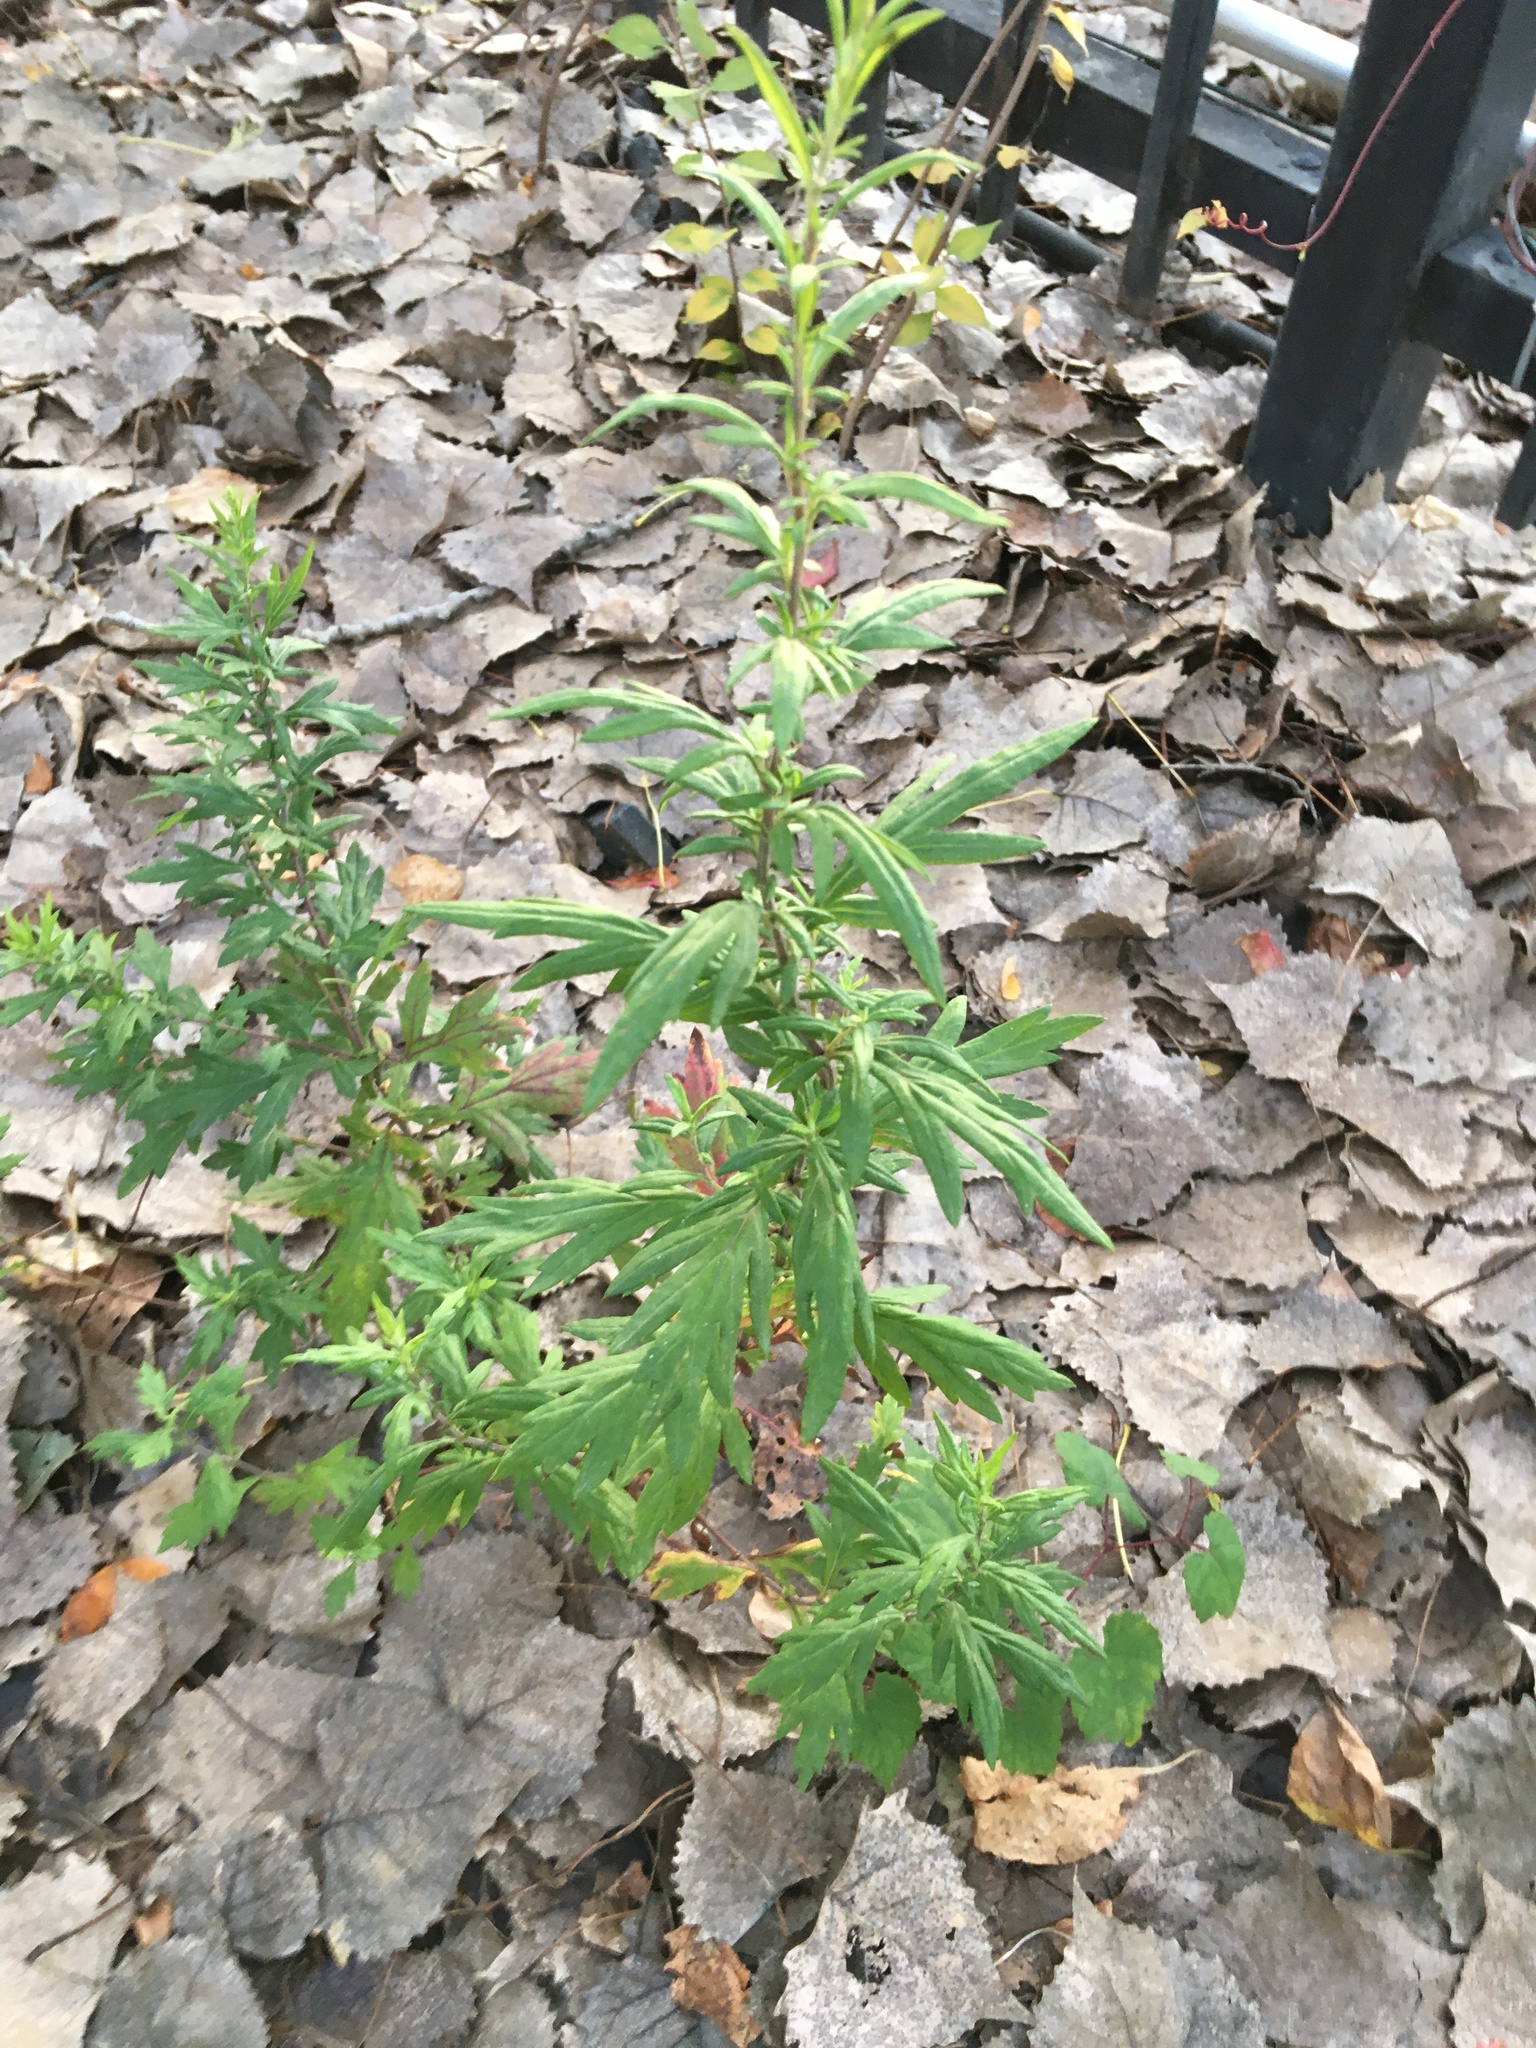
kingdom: Plantae
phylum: Tracheophyta
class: Magnoliopsida
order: Asterales
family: Asteraceae
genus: Artemisia
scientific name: Artemisia vulgaris
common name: Mugwort
